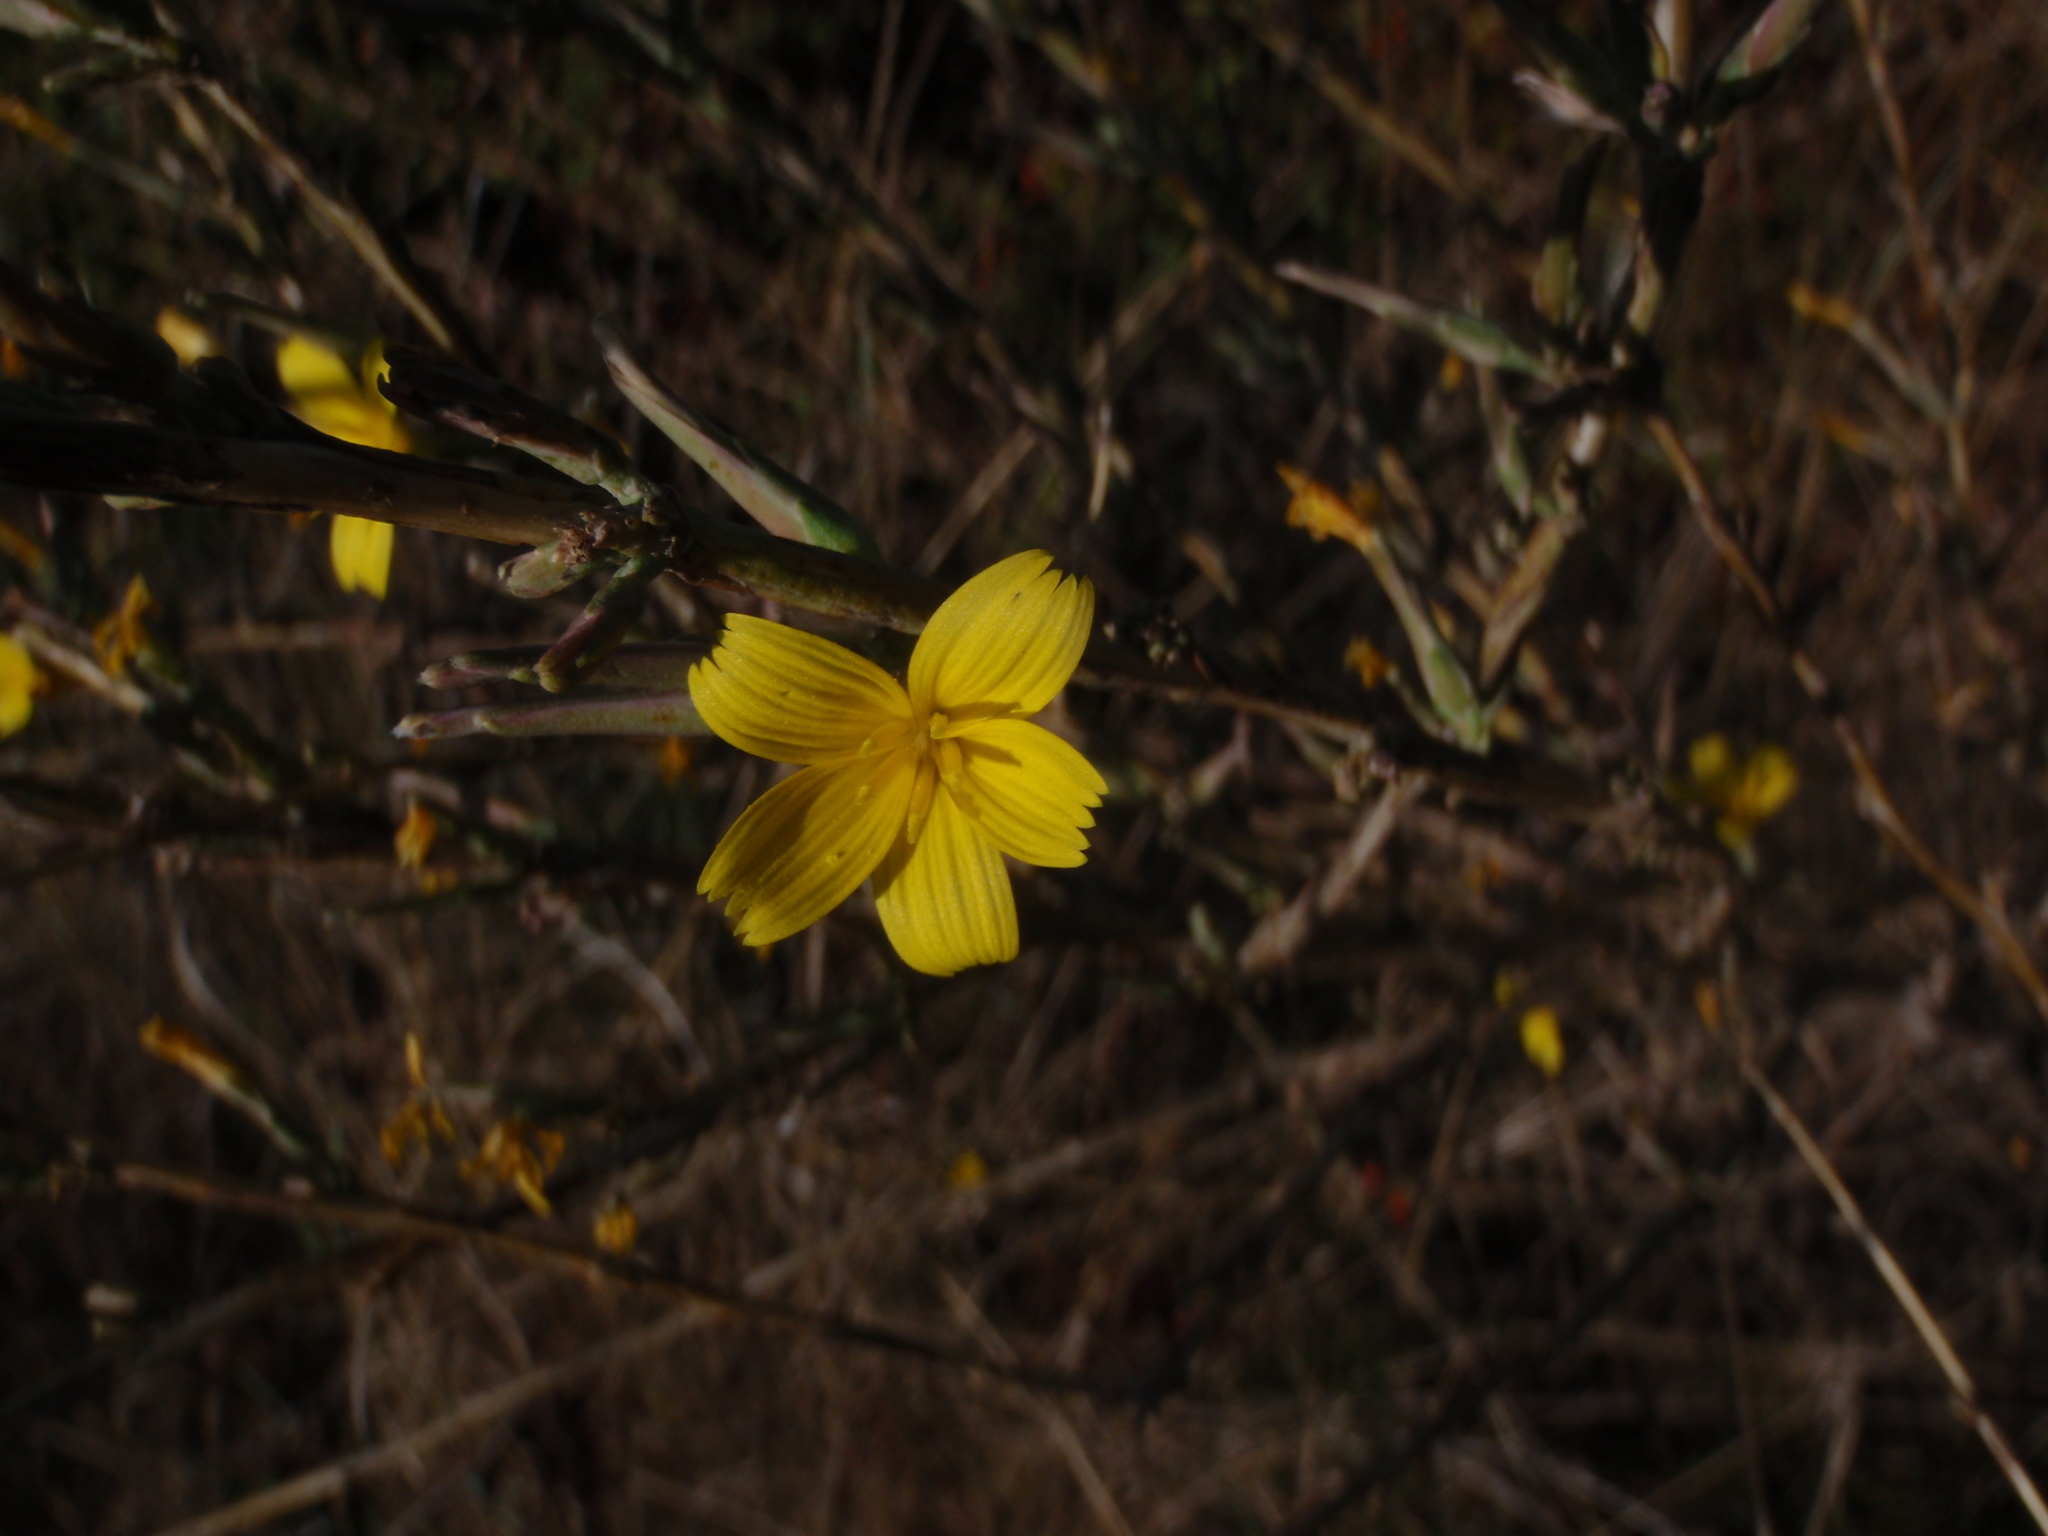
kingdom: Plantae
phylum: Tracheophyta
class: Magnoliopsida
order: Asterales
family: Asteraceae
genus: Lactuca
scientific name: Lactuca viminea
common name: Pliant lettuce
